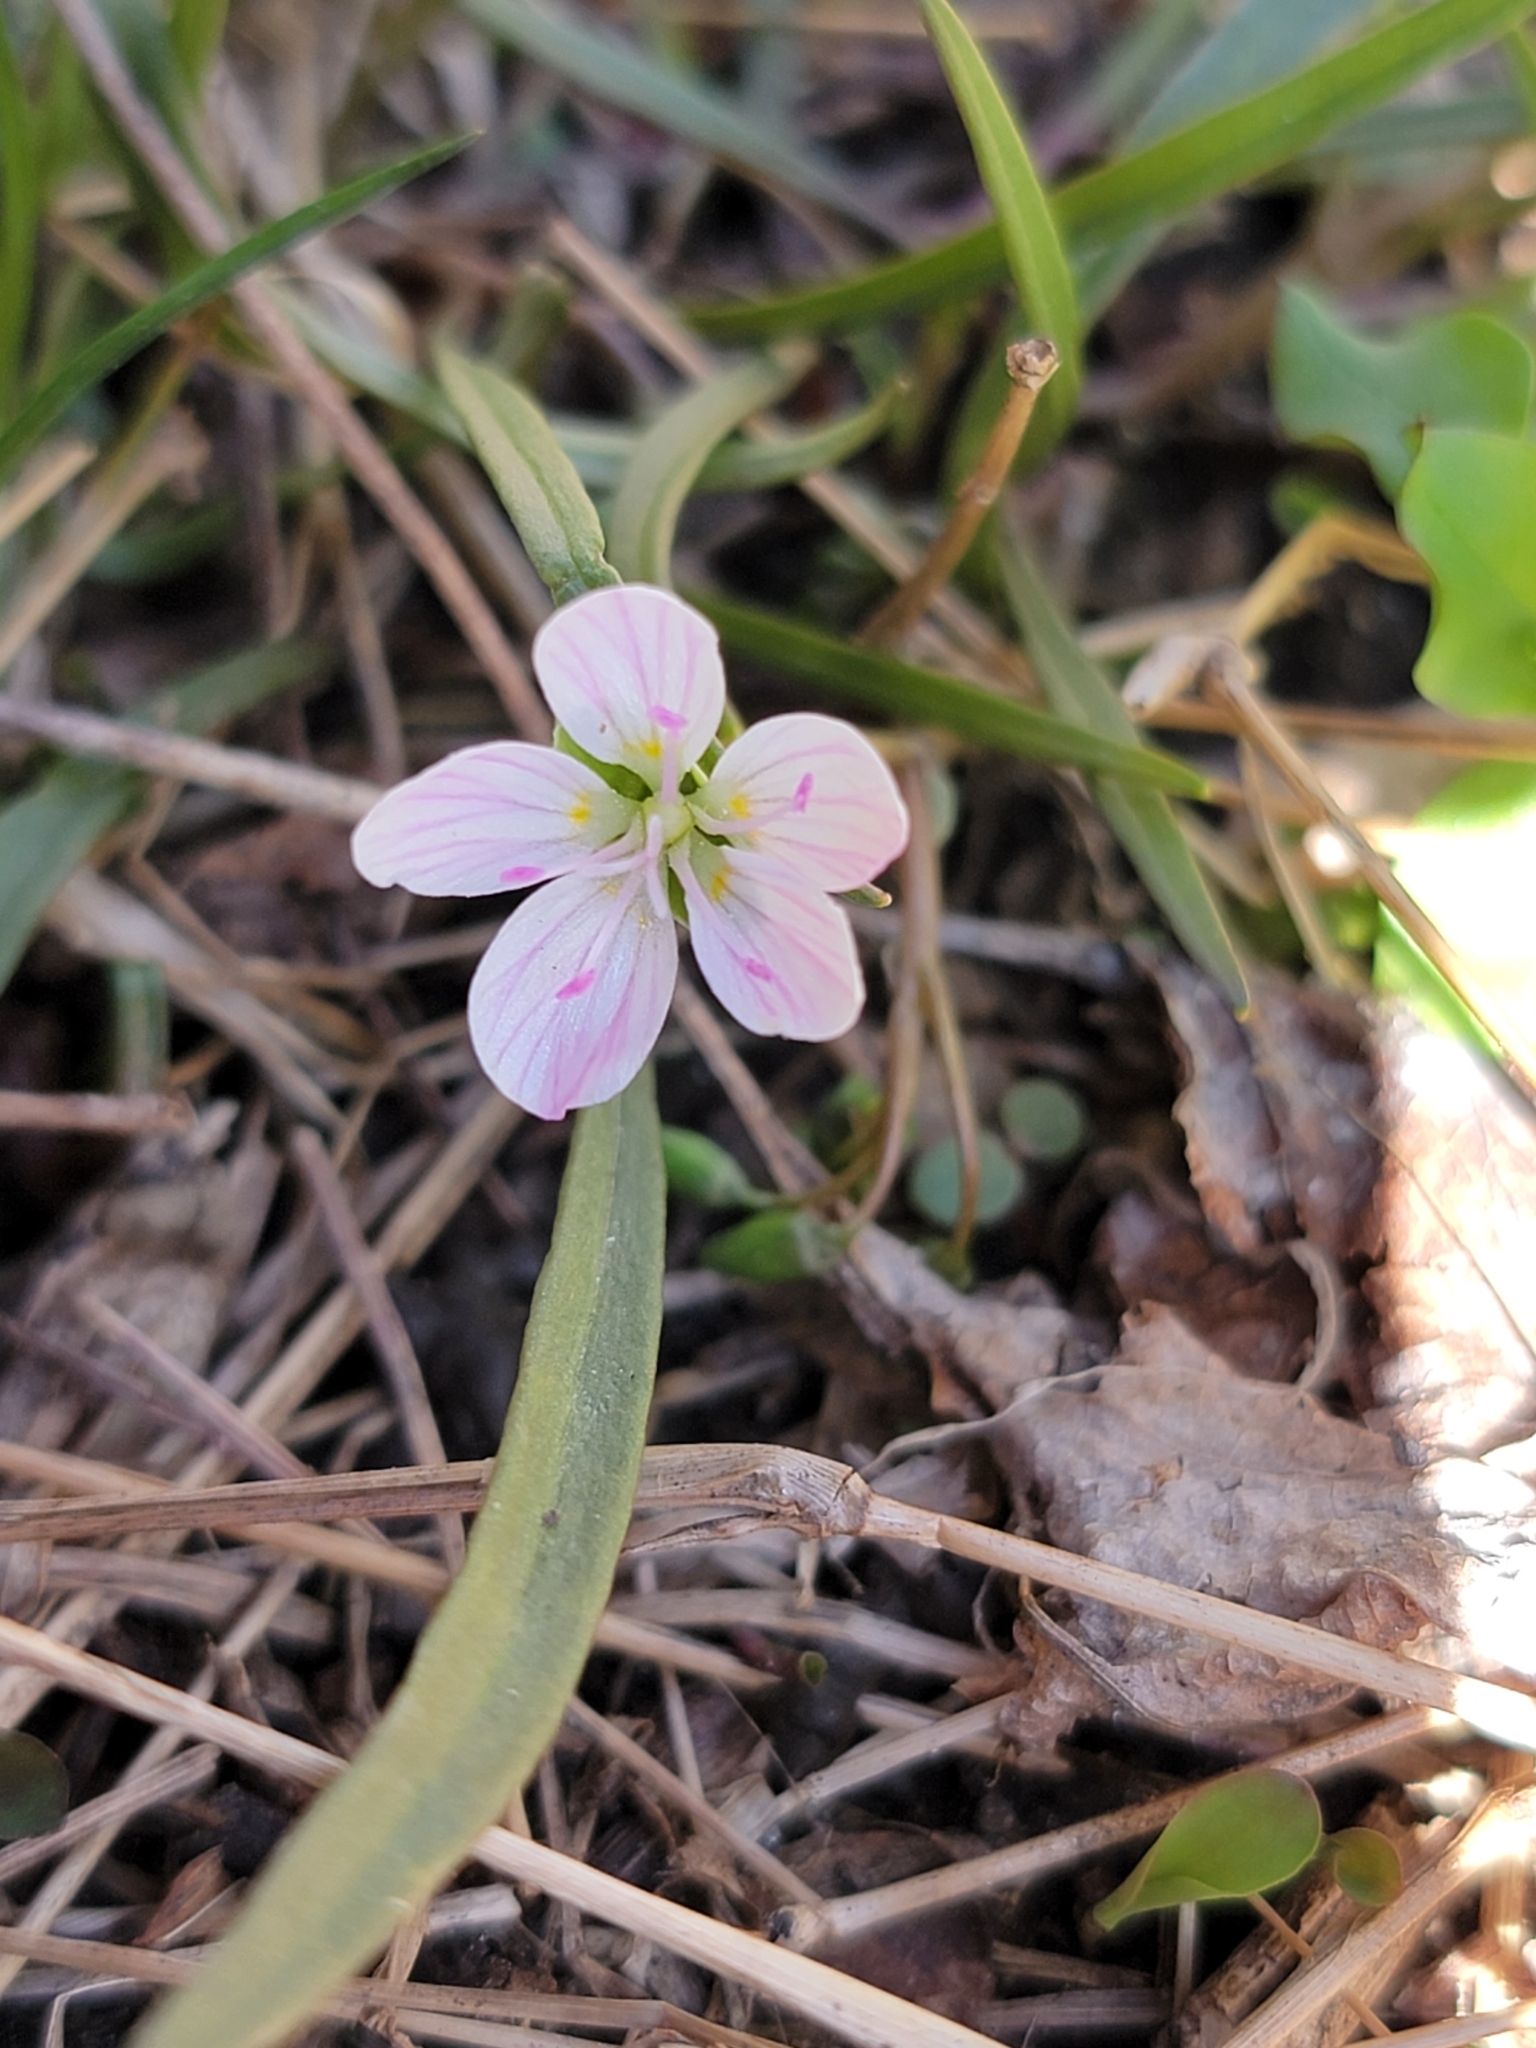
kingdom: Plantae
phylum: Tracheophyta
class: Magnoliopsida
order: Caryophyllales
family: Montiaceae
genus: Claytonia
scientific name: Claytonia virginica
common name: Virginia springbeauty
